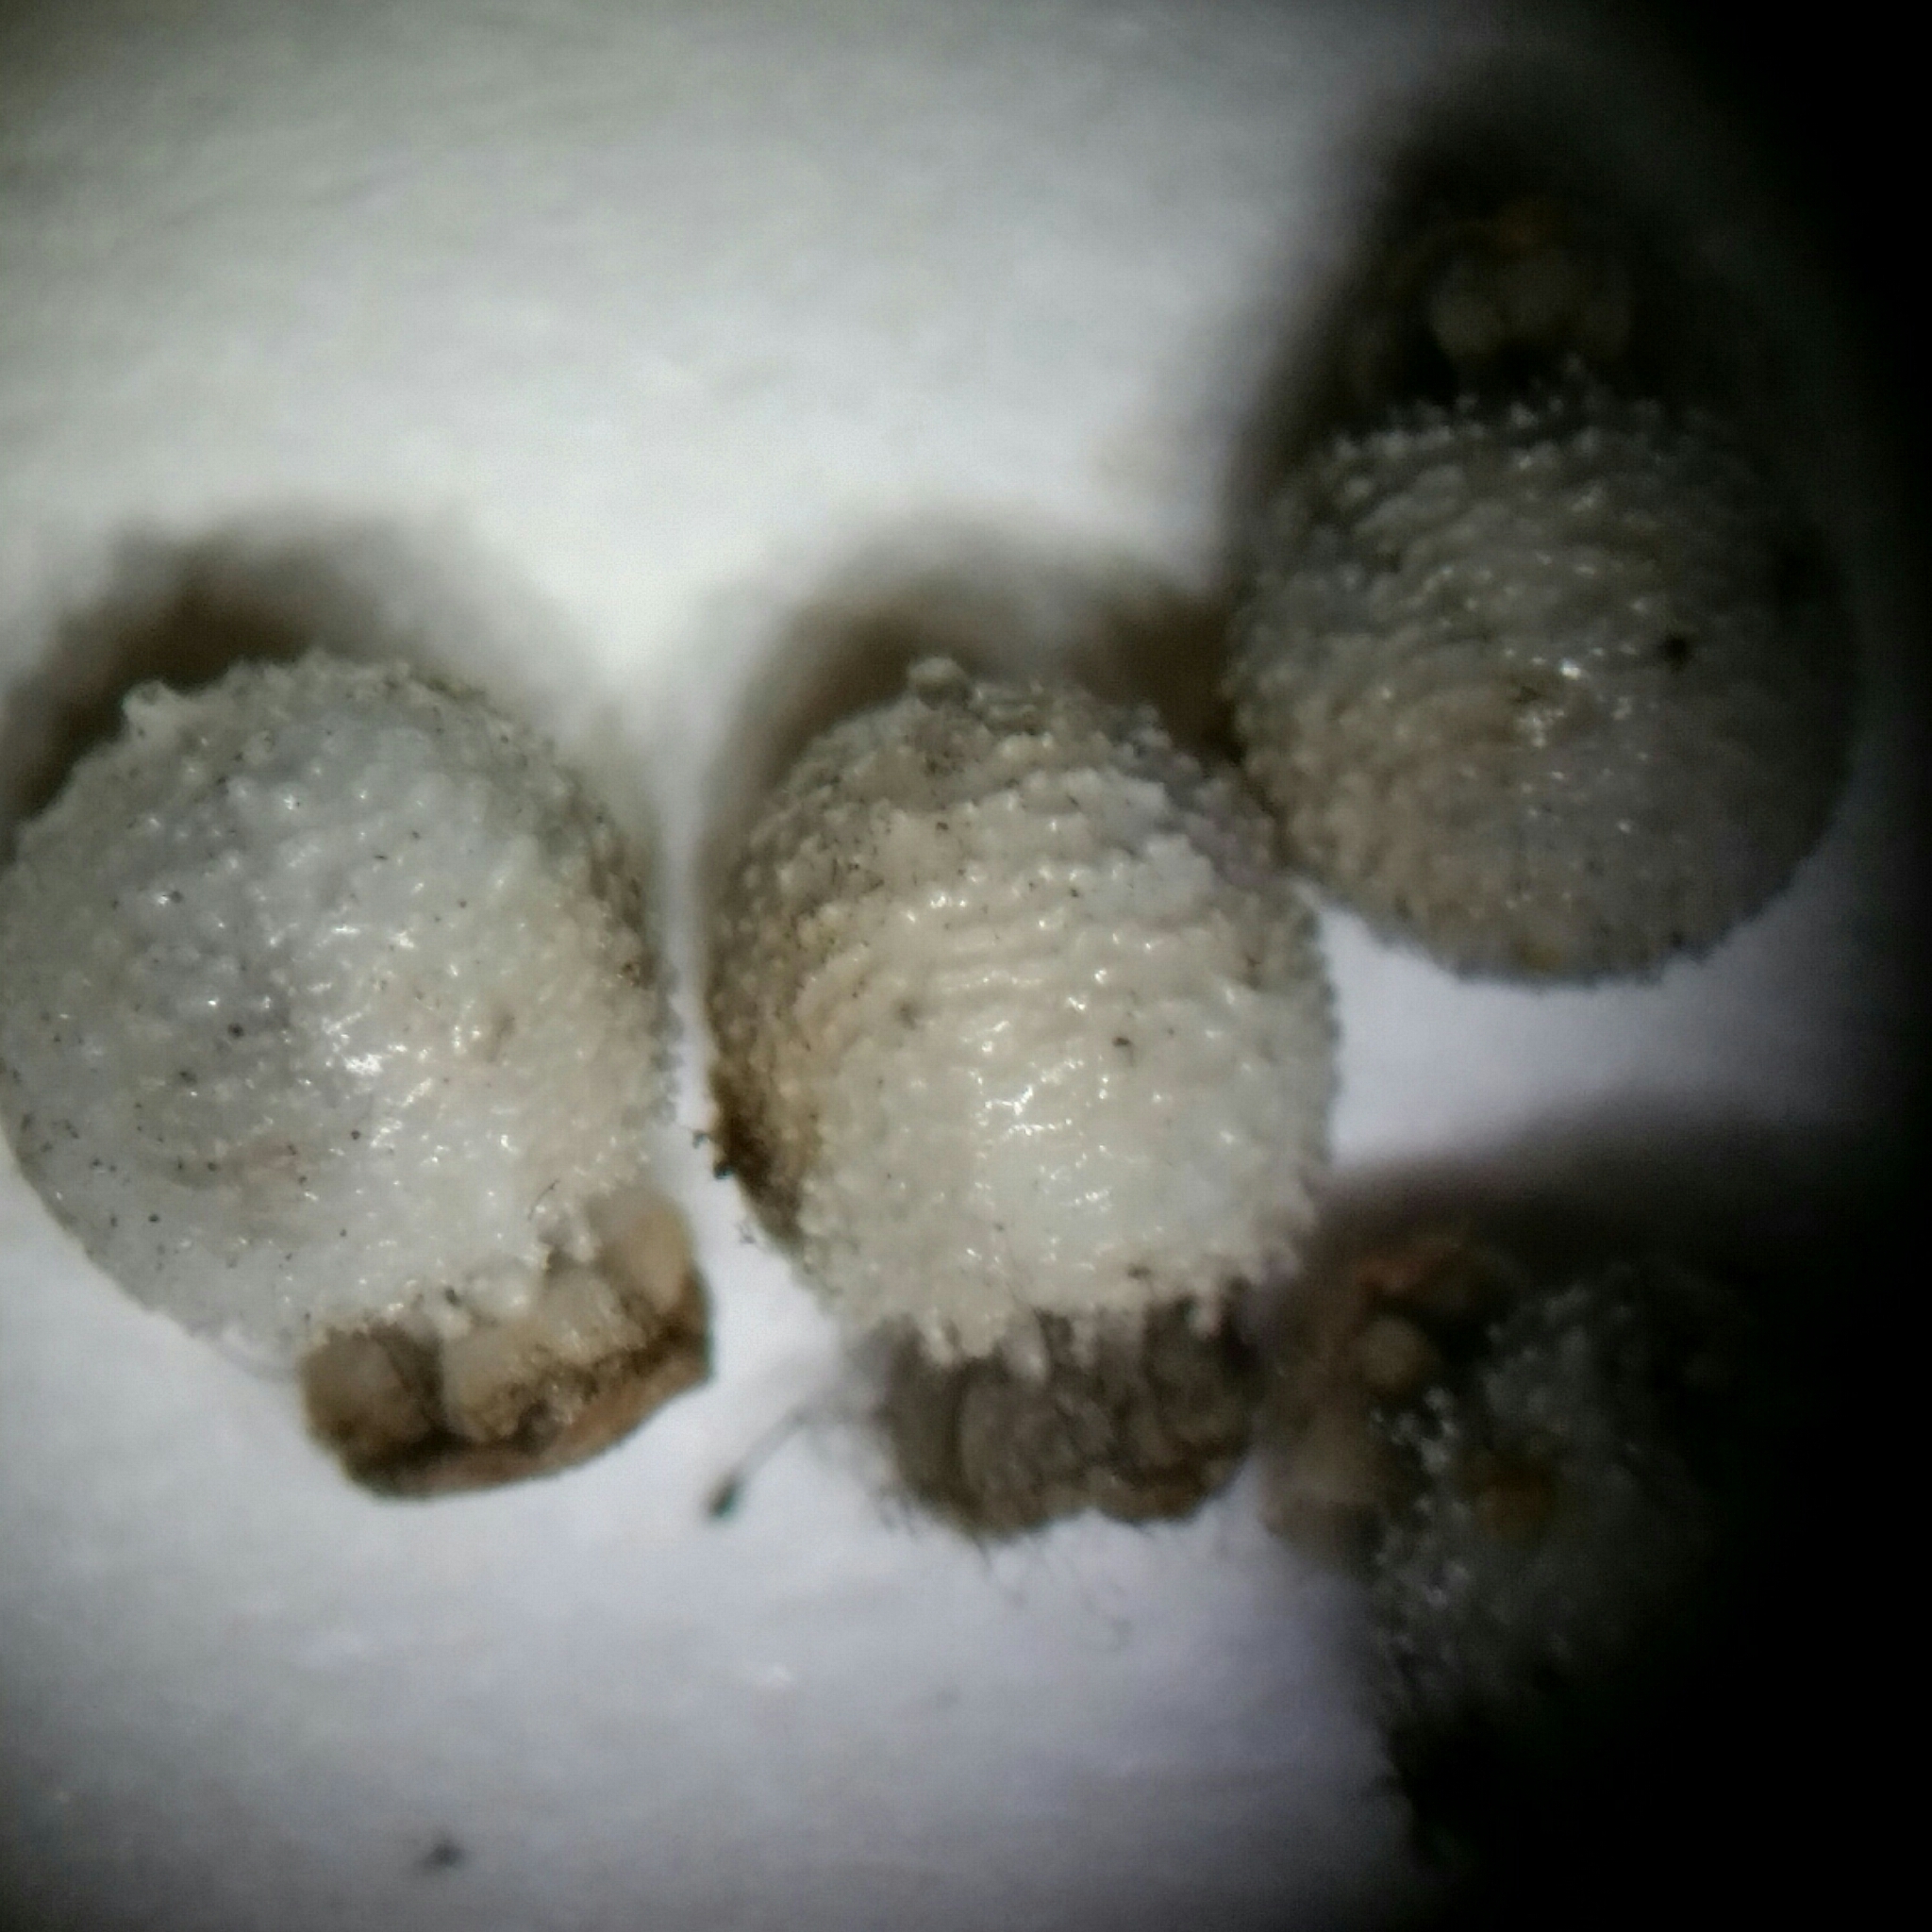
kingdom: Plantae
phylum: Tracheophyta
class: Liliopsida
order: Poales
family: Cyperaceae
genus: Scleria
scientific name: Scleria ciliata
